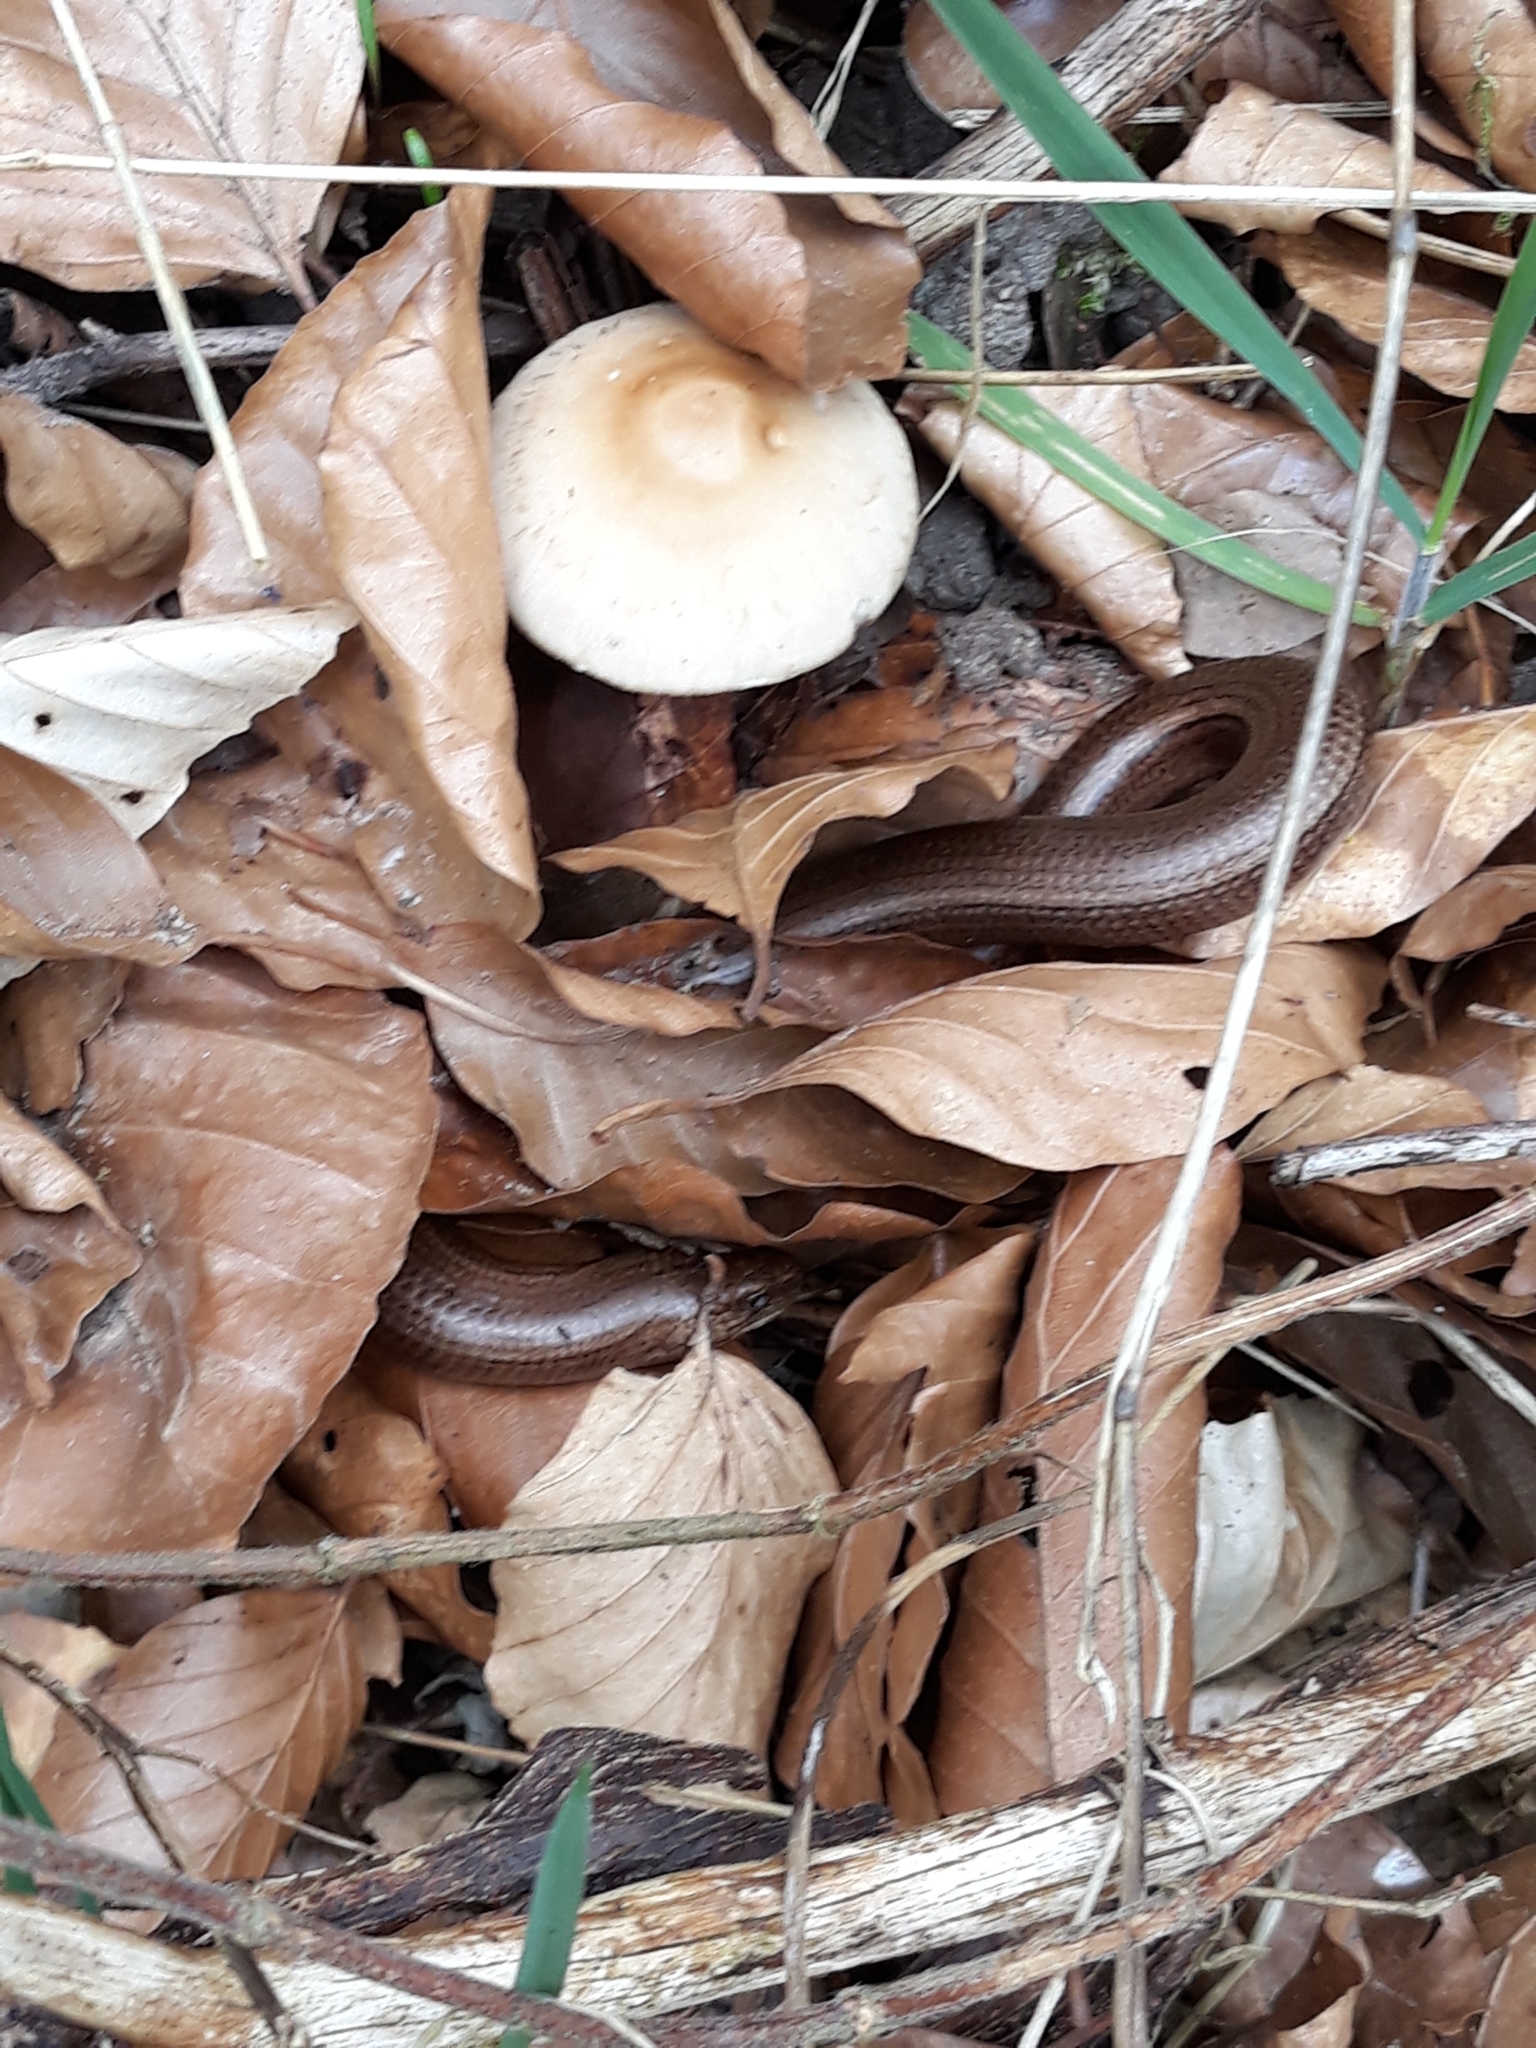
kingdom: Animalia
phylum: Chordata
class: Squamata
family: Anguidae
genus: Anguis
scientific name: Anguis fragilis
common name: Slow worm
